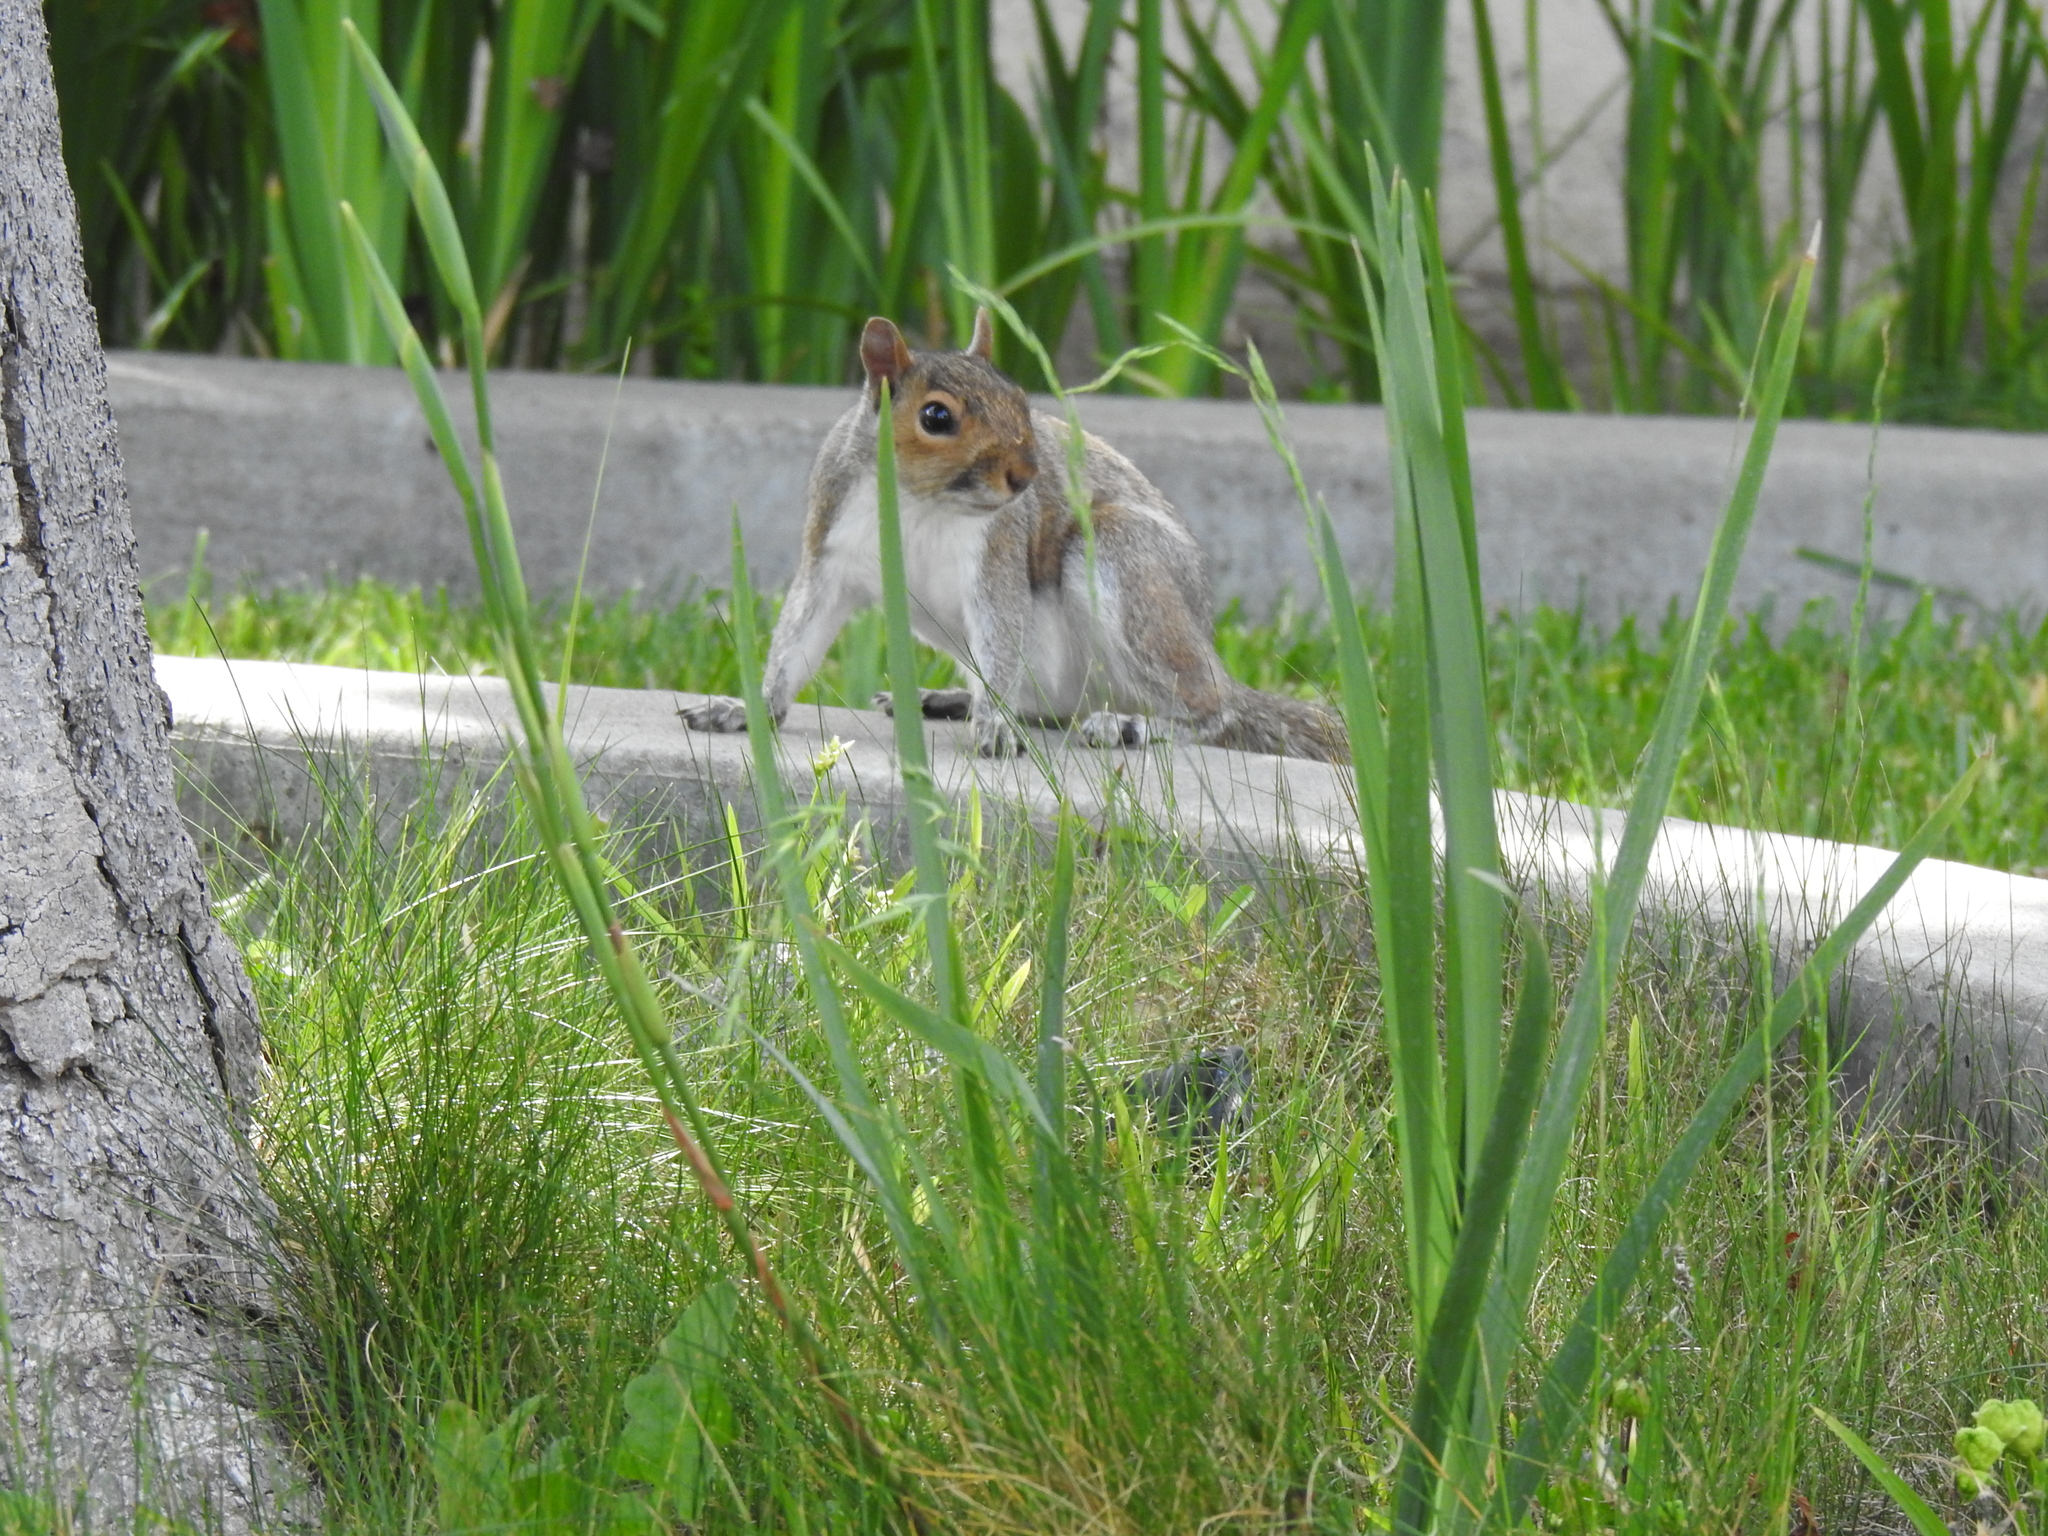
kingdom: Animalia
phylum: Chordata
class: Mammalia
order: Rodentia
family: Sciuridae
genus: Sciurus
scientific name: Sciurus carolinensis
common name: Eastern gray squirrel
